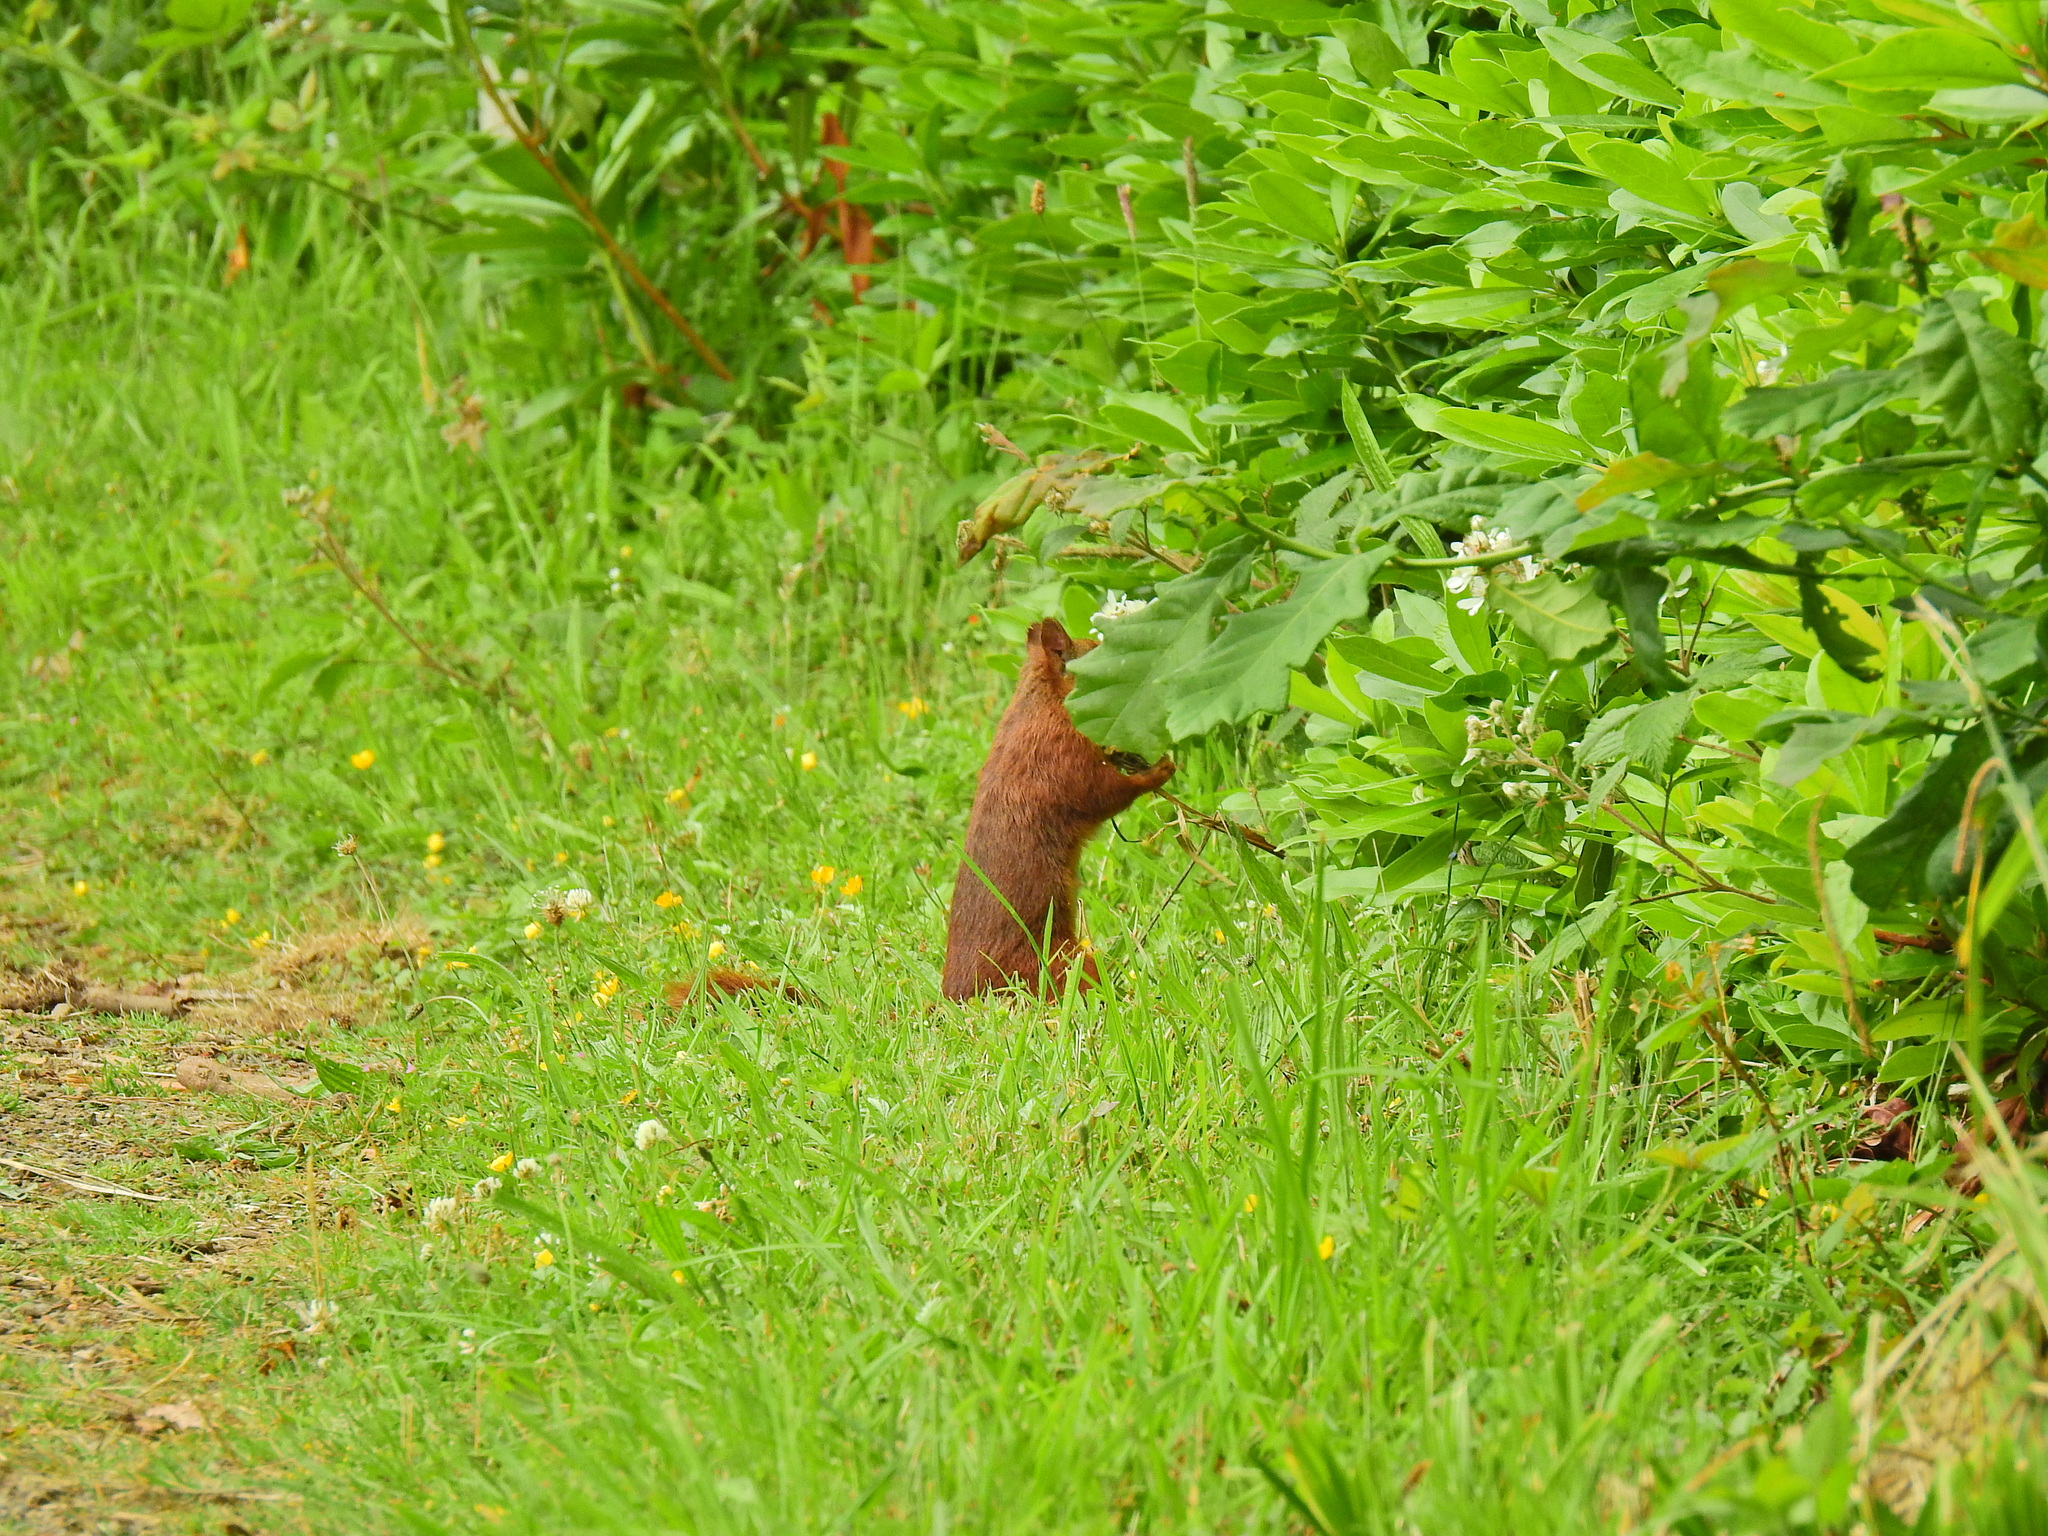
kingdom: Animalia
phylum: Chordata
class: Mammalia
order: Rodentia
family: Sciuridae
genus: Sciurus
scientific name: Sciurus vulgaris
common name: Eurasian red squirrel
